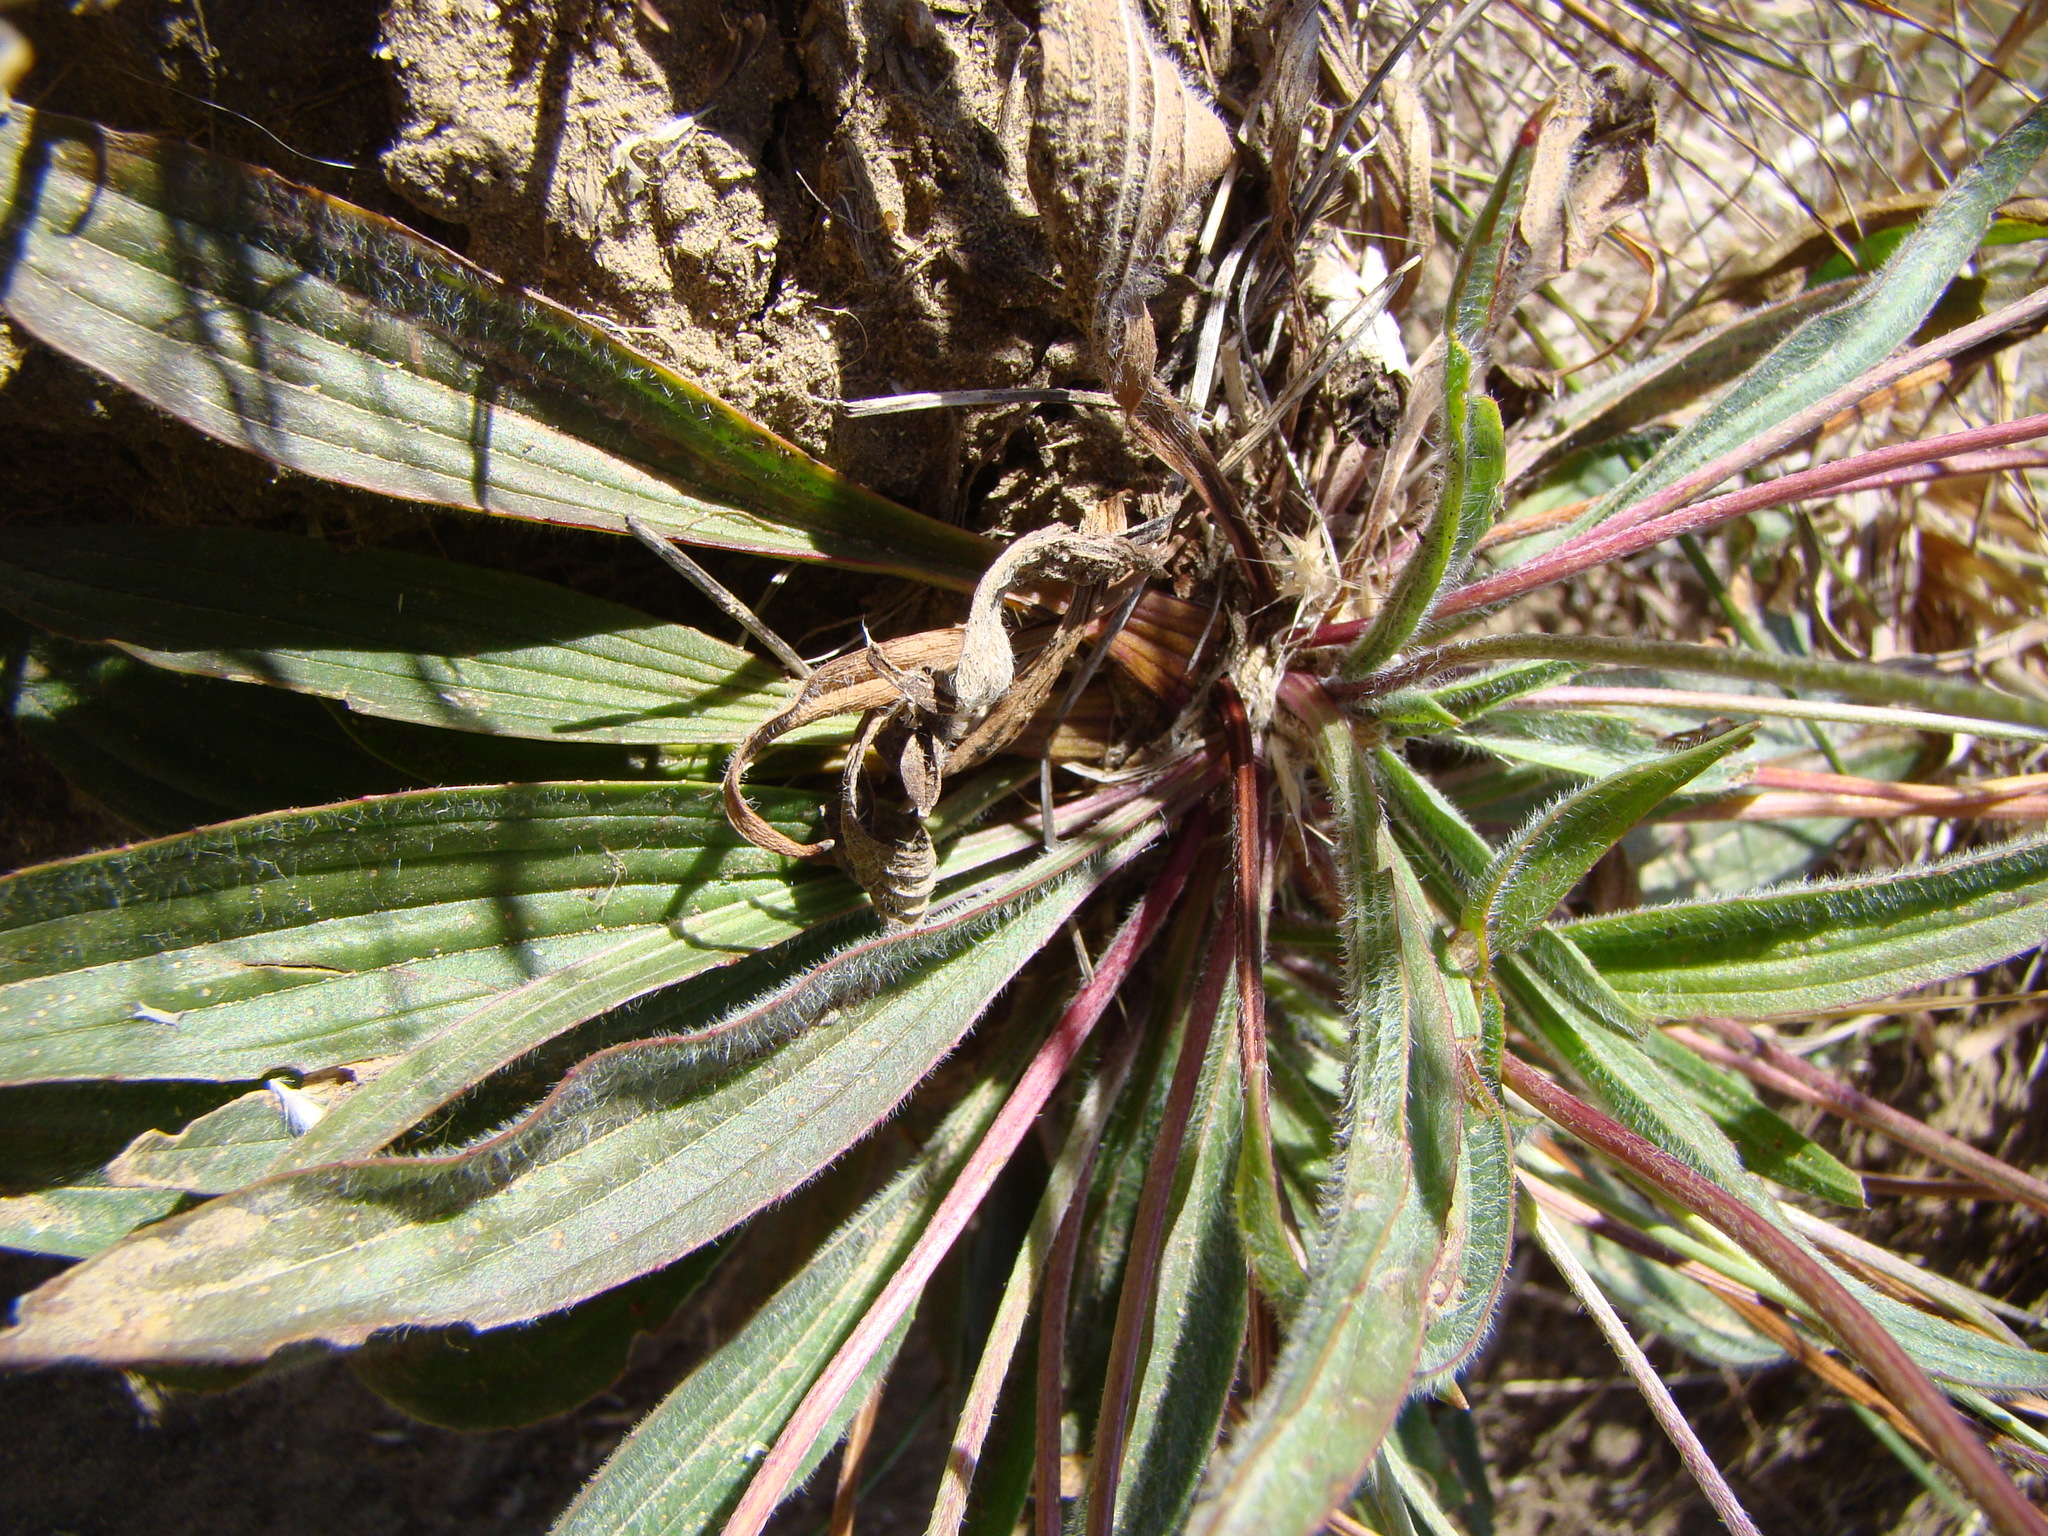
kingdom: Plantae
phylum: Tracheophyta
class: Magnoliopsida
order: Lamiales
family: Plantaginaceae
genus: Plantago
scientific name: Plantago lanceolata
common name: Ribwort plantain
